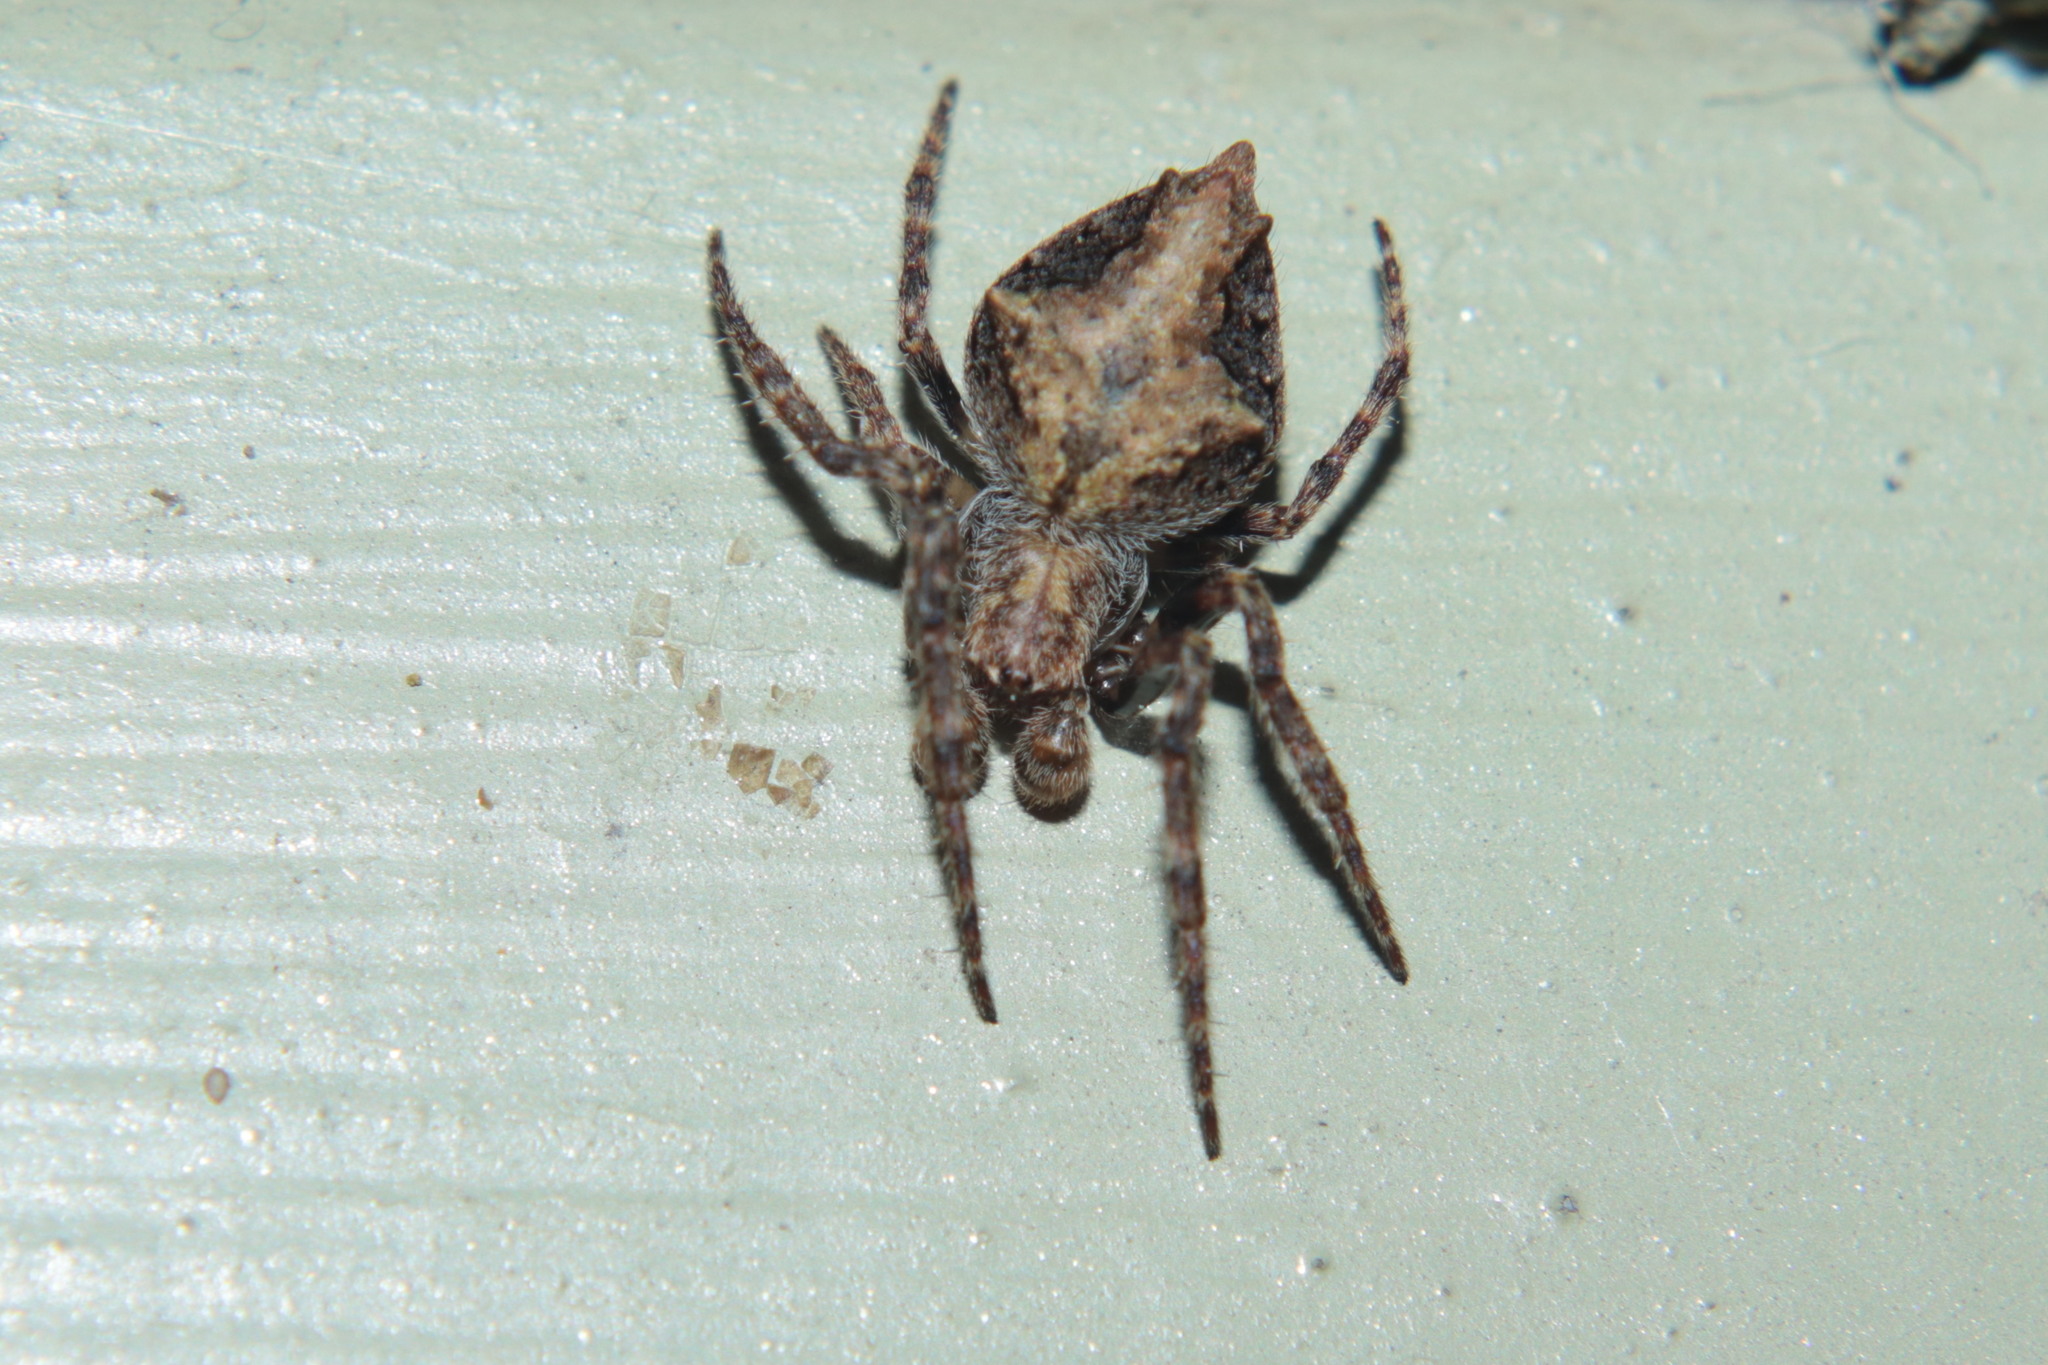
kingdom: Animalia
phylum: Arthropoda
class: Arachnida
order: Araneae
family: Araneidae
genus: Eriophora
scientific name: Eriophora pustulosa
